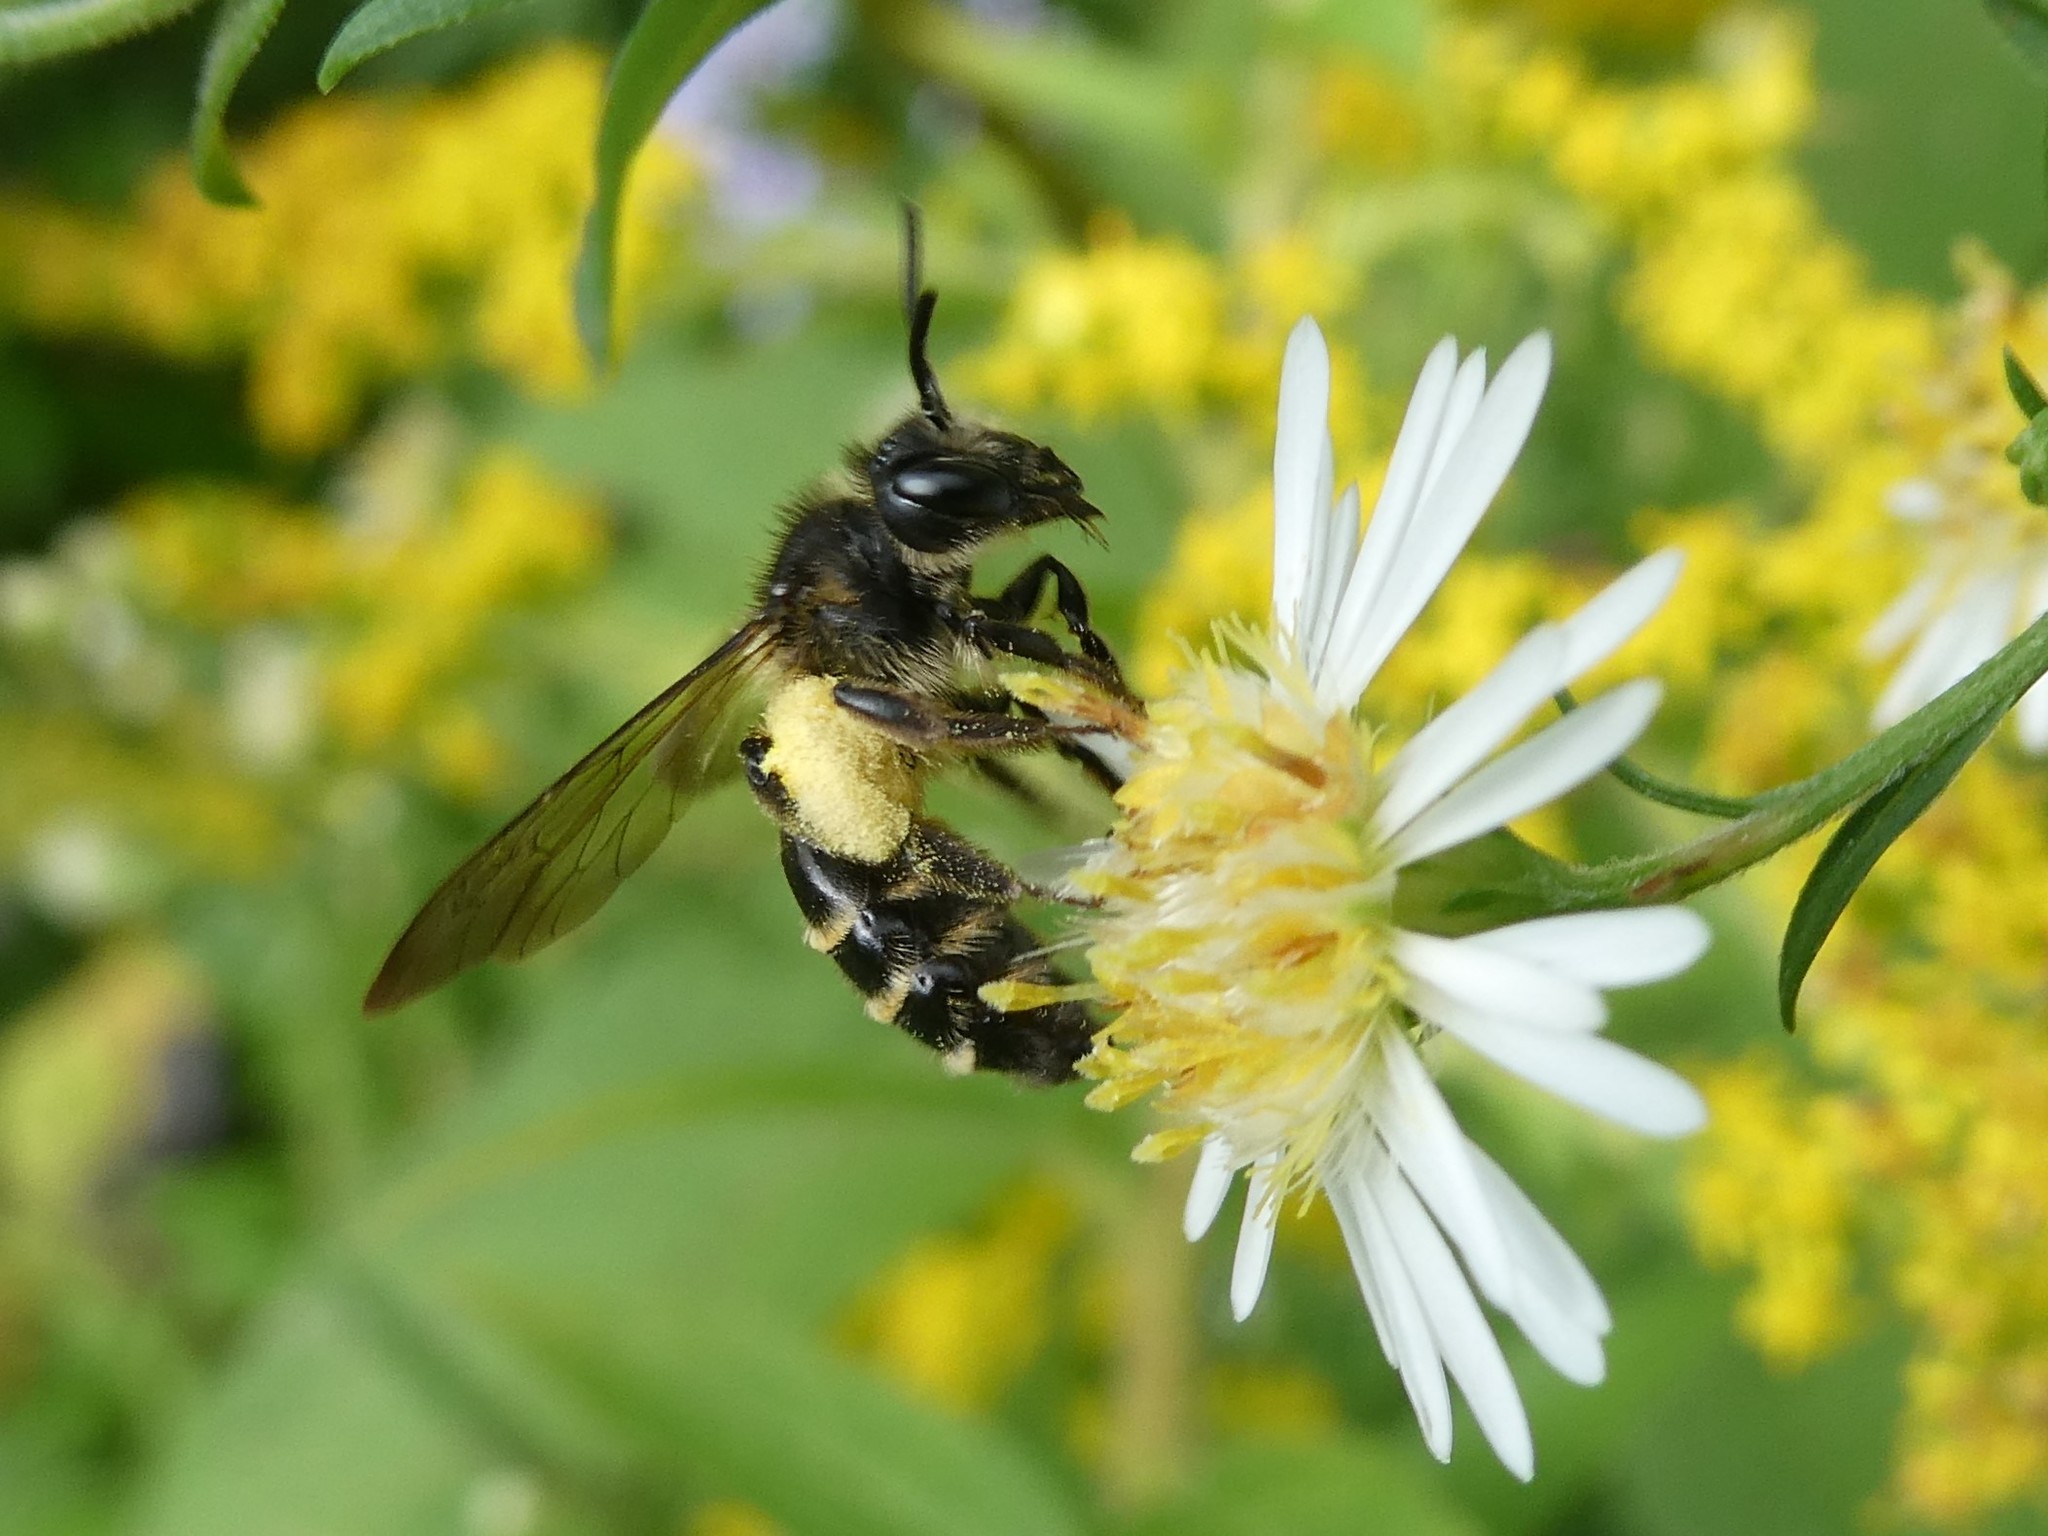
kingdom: Animalia
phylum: Arthropoda
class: Insecta
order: Hymenoptera
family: Andrenidae
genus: Andrena
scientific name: Andrena robervalensis
